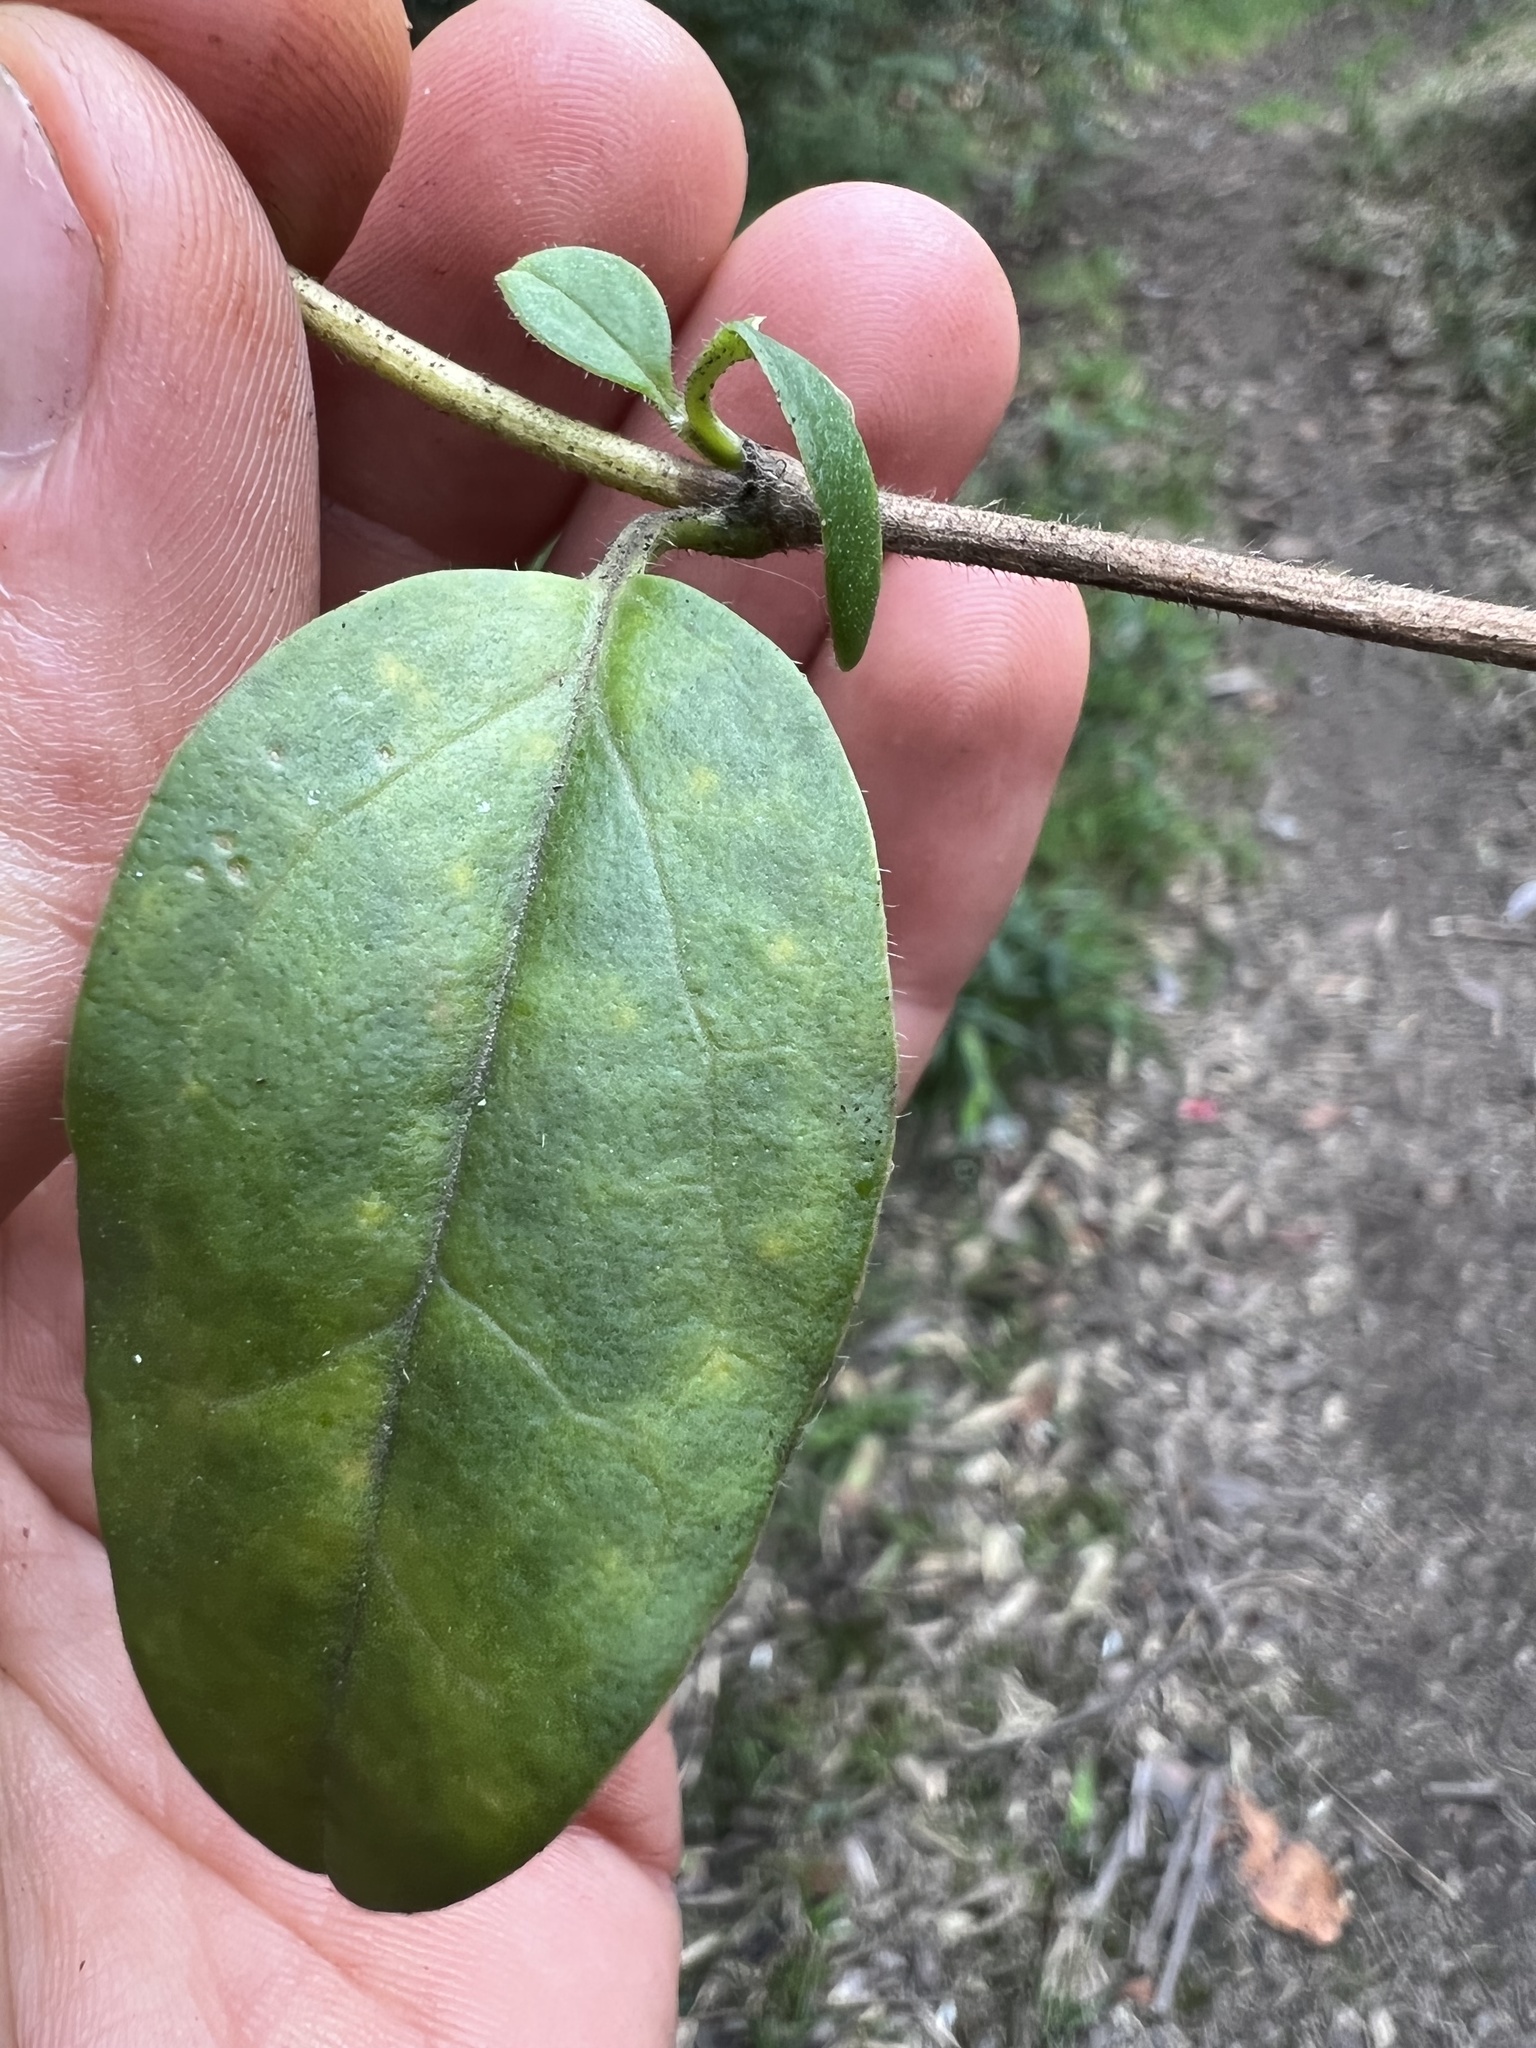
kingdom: Plantae
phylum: Tracheophyta
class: Magnoliopsida
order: Dipsacales
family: Caprifoliaceae
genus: Valeriana
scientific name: Valeriana clematitis
